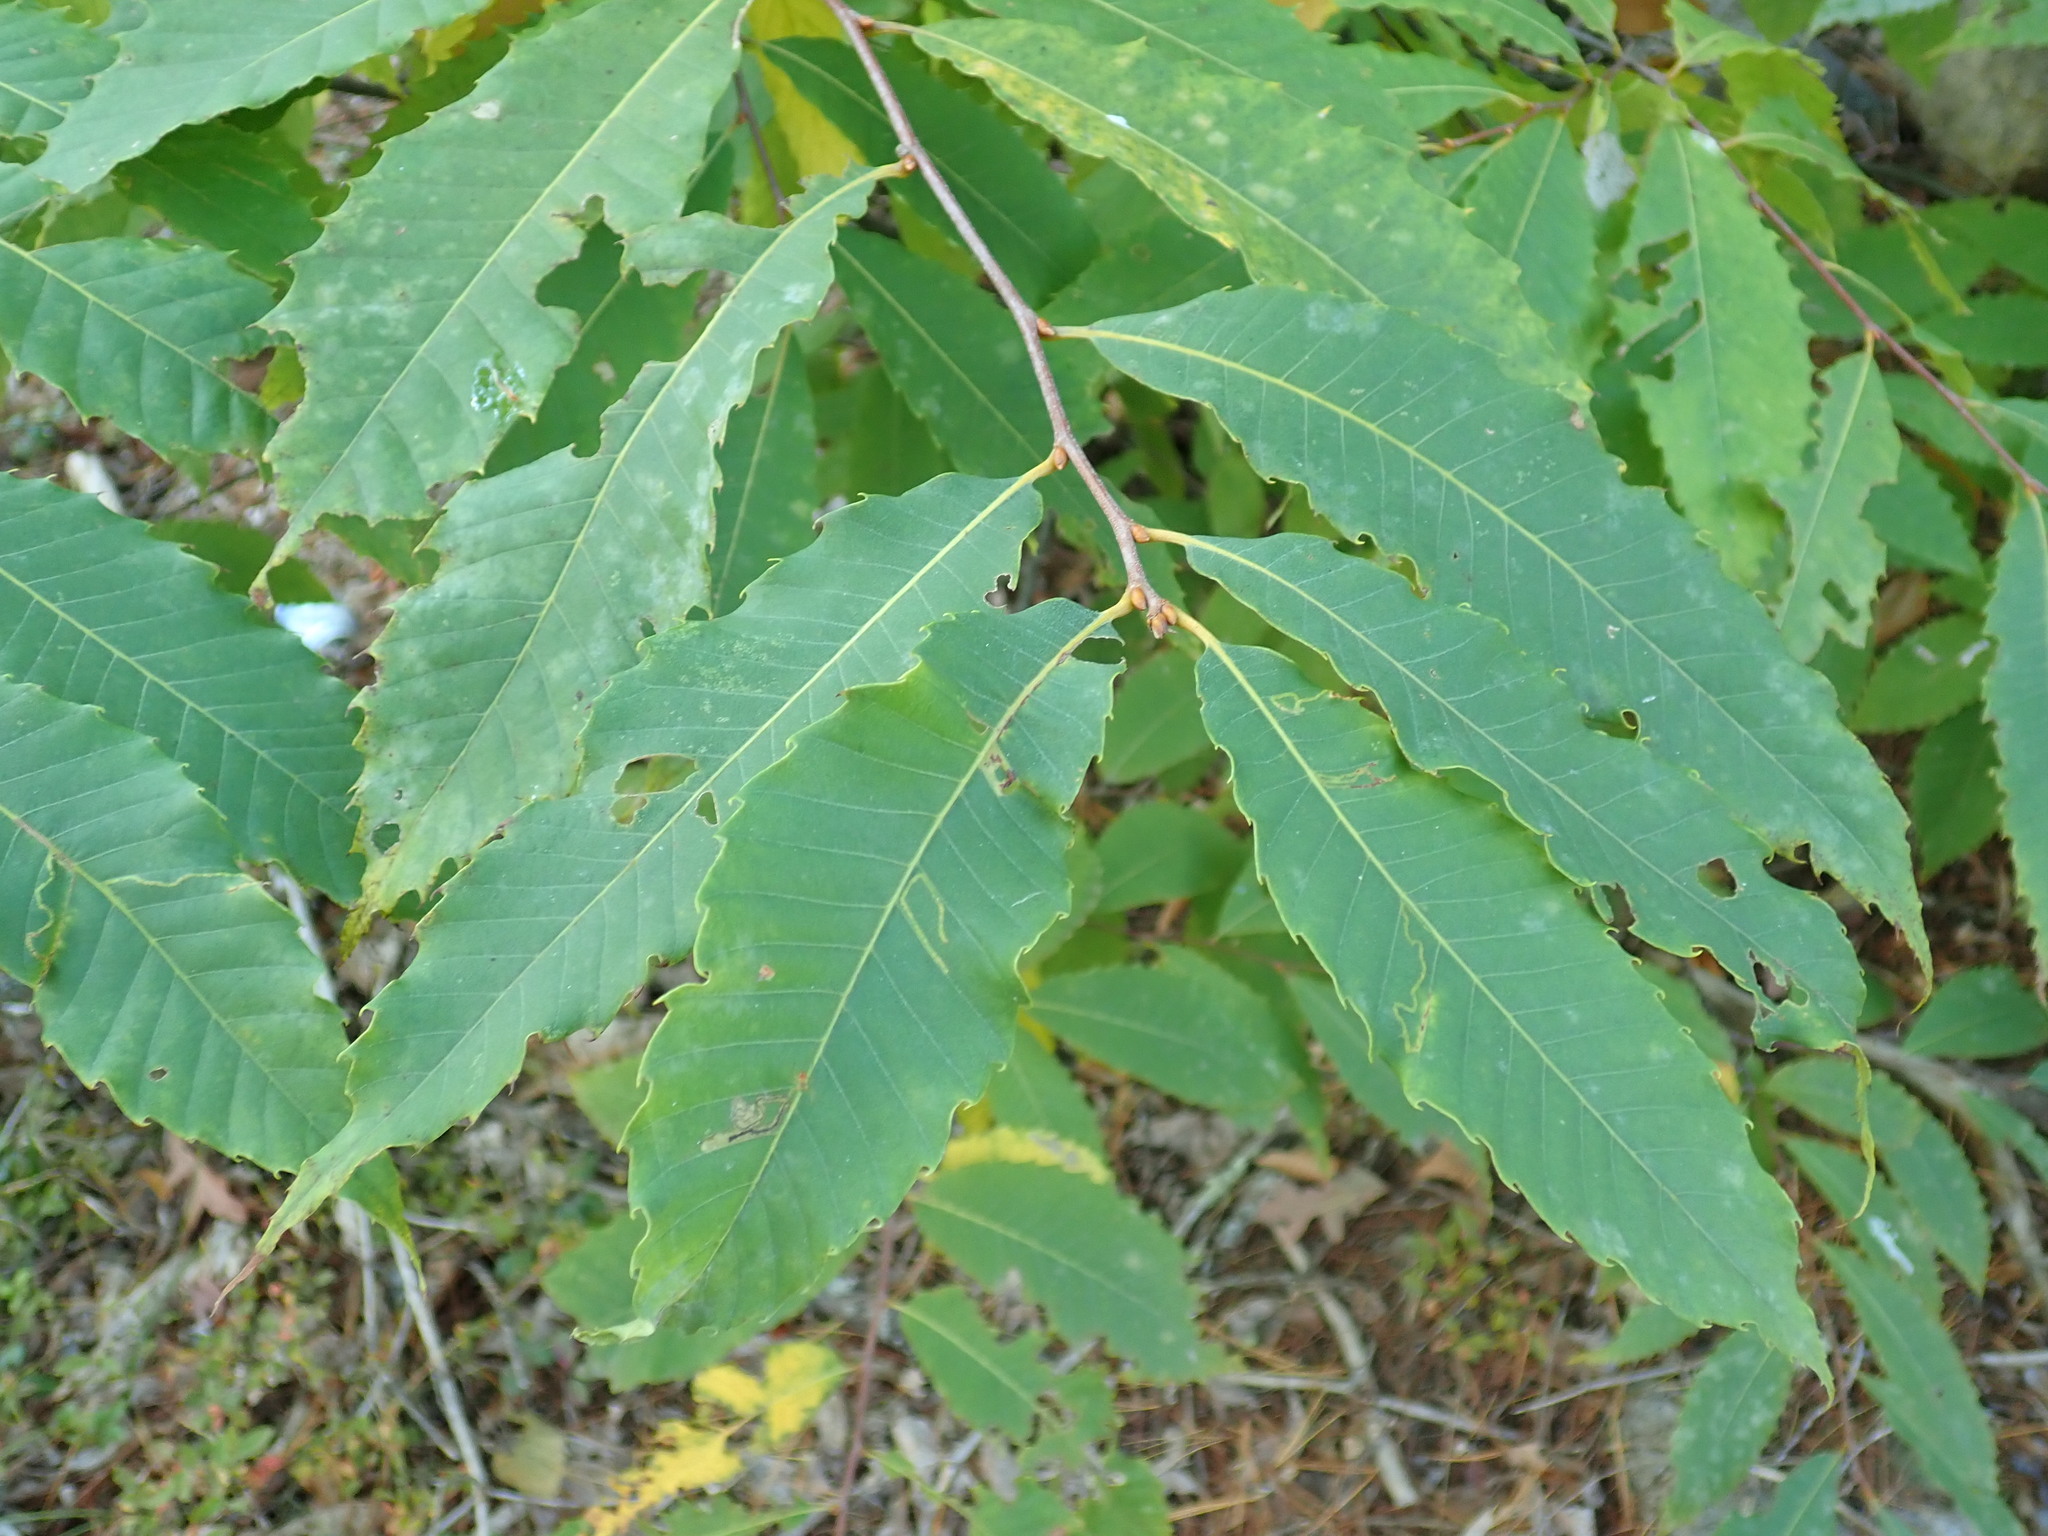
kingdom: Plantae
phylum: Tracheophyta
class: Magnoliopsida
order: Fagales
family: Fagaceae
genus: Castanea
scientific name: Castanea dentata
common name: American chestnut
